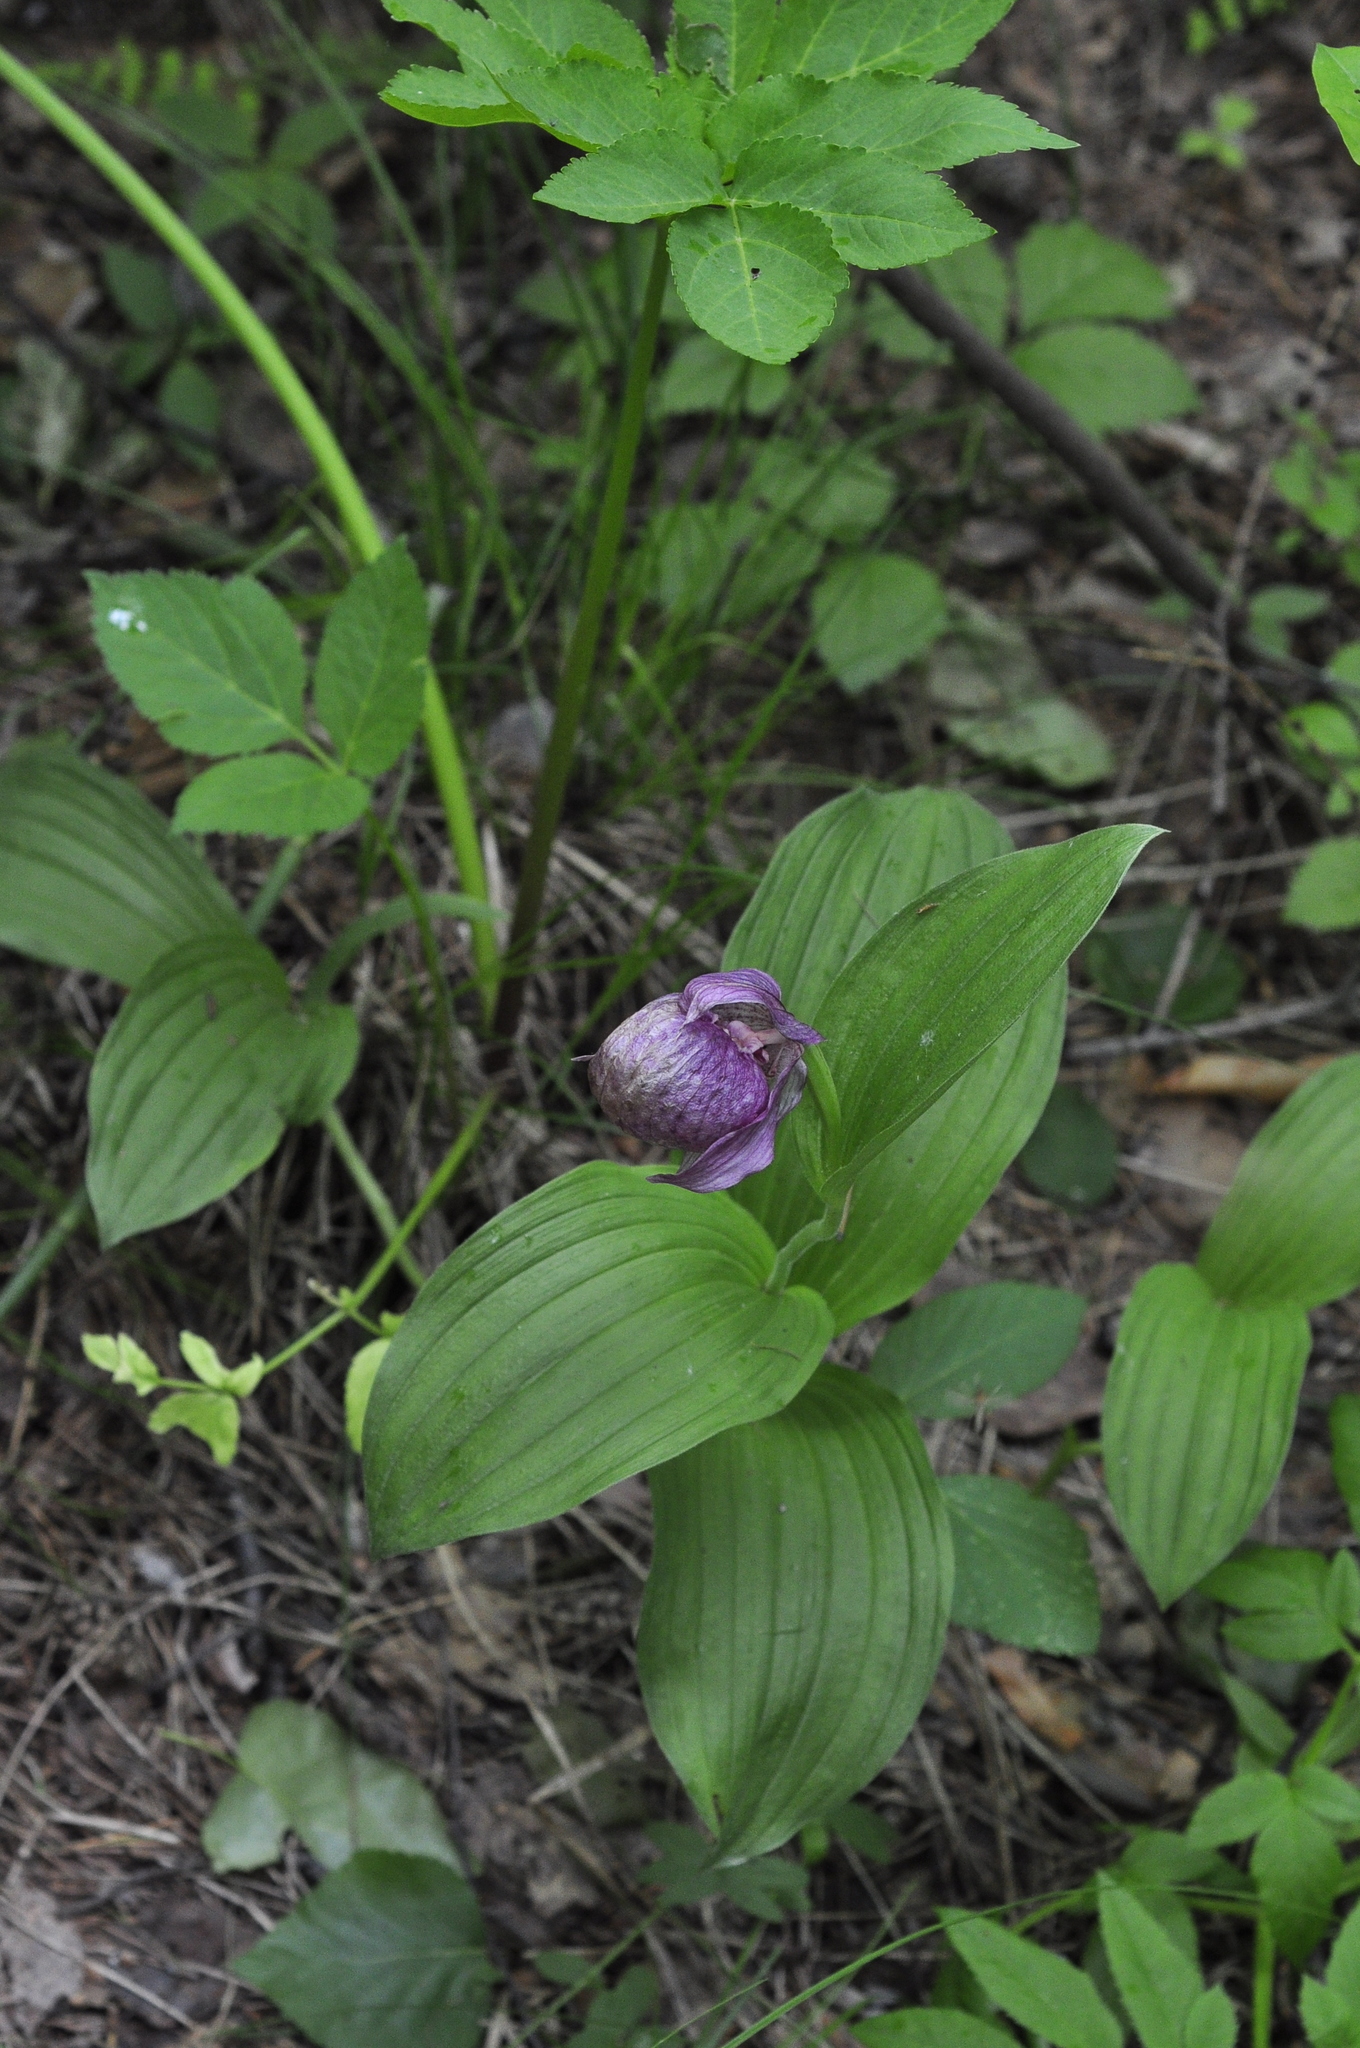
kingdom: Plantae
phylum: Tracheophyta
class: Liliopsida
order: Asparagales
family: Orchidaceae
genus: Cypripedium
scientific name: Cypripedium macranthos
